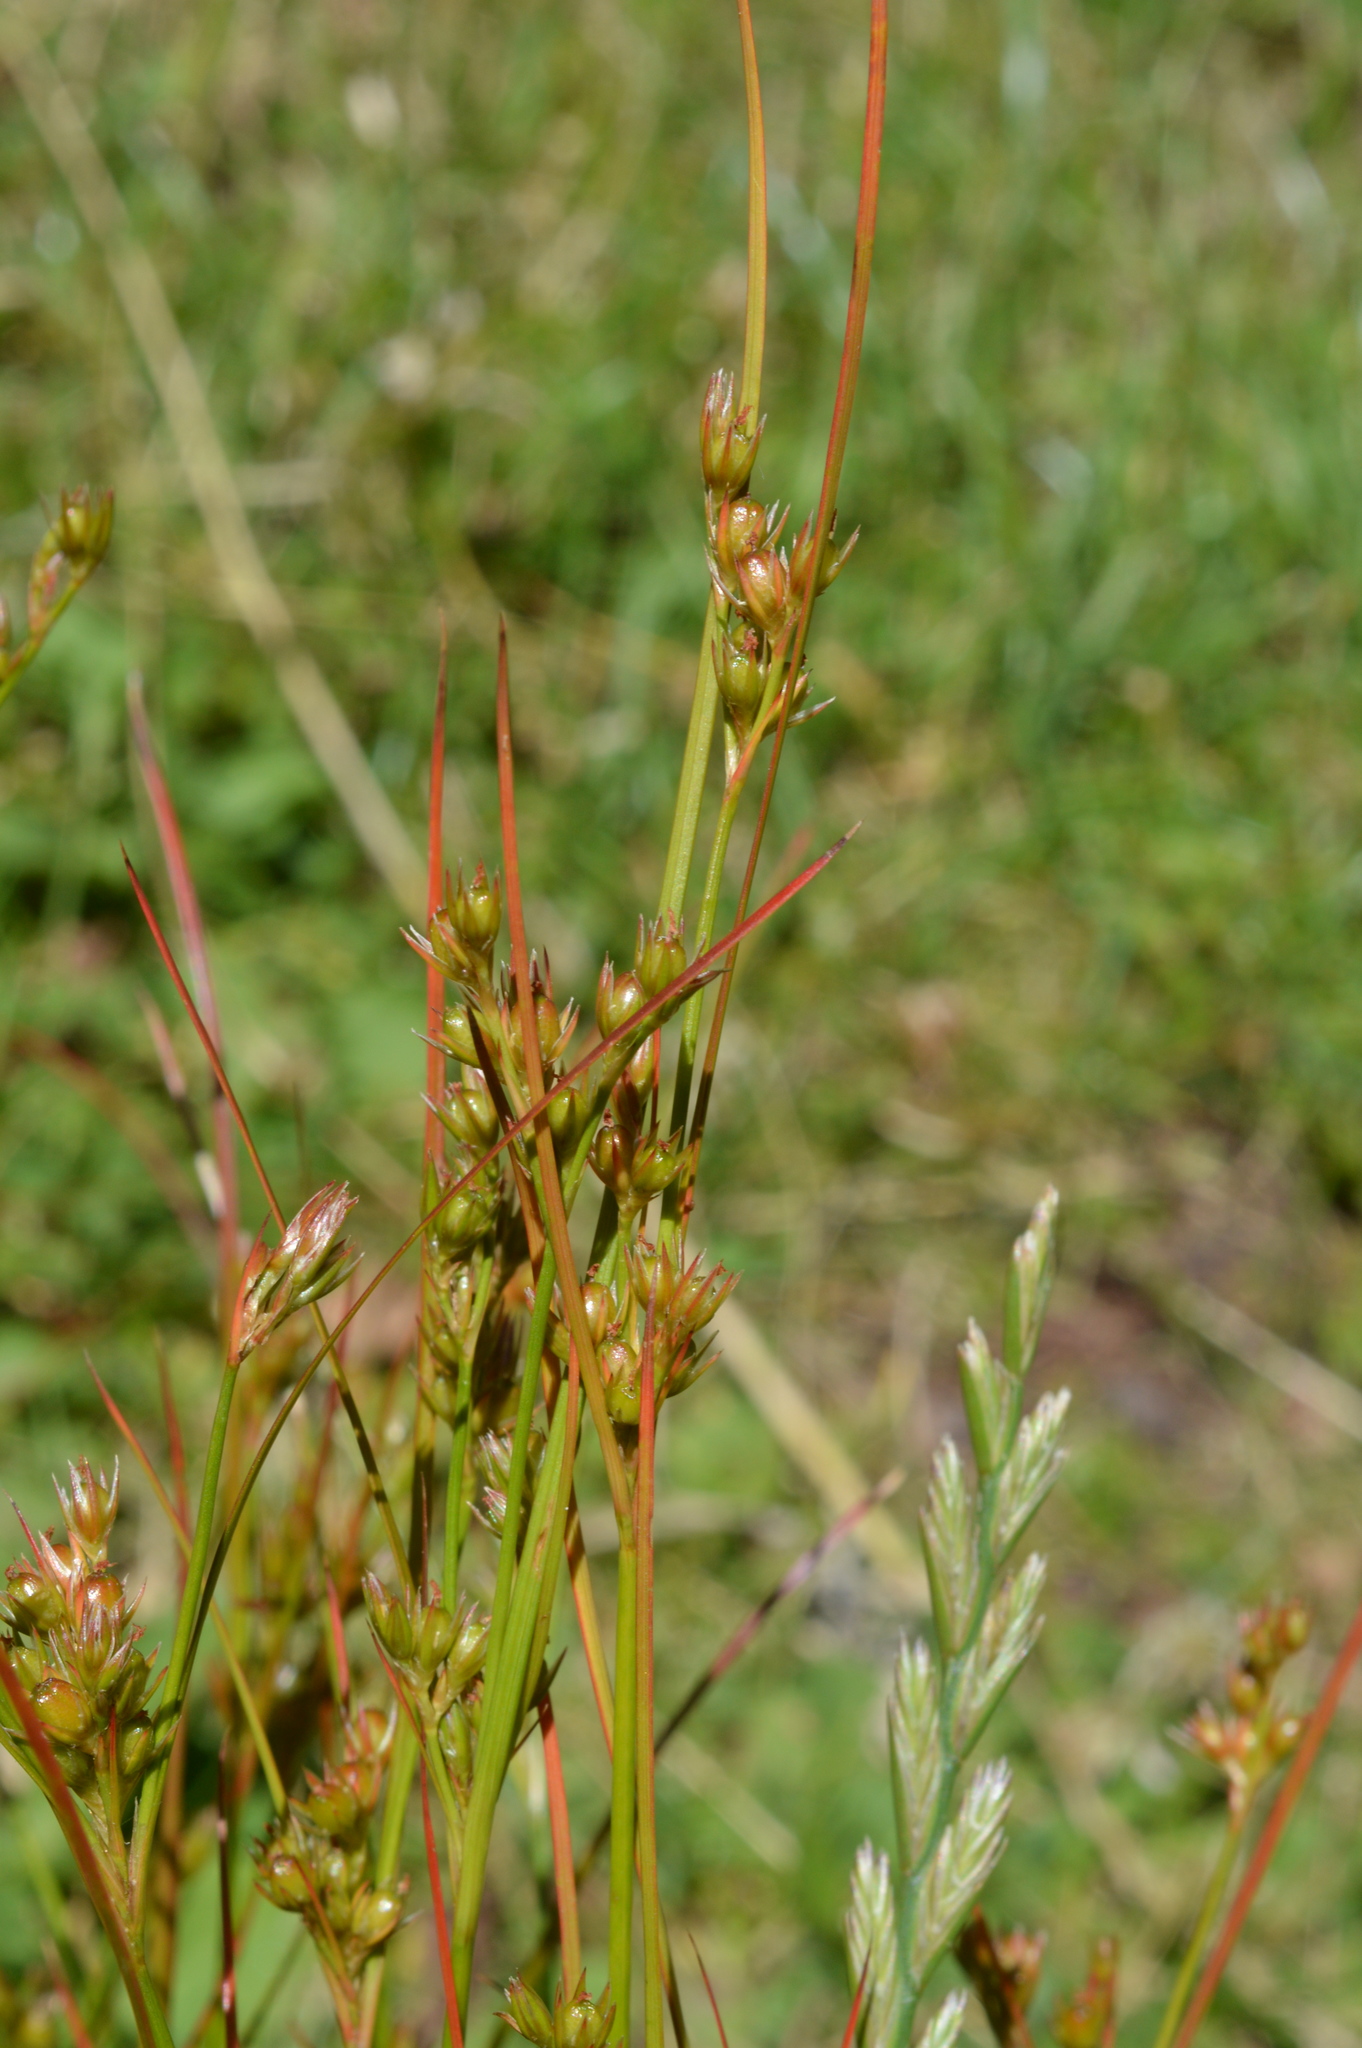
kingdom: Plantae
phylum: Tracheophyta
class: Liliopsida
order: Poales
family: Juncaceae
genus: Juncus
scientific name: Juncus tenuis
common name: Slender rush
